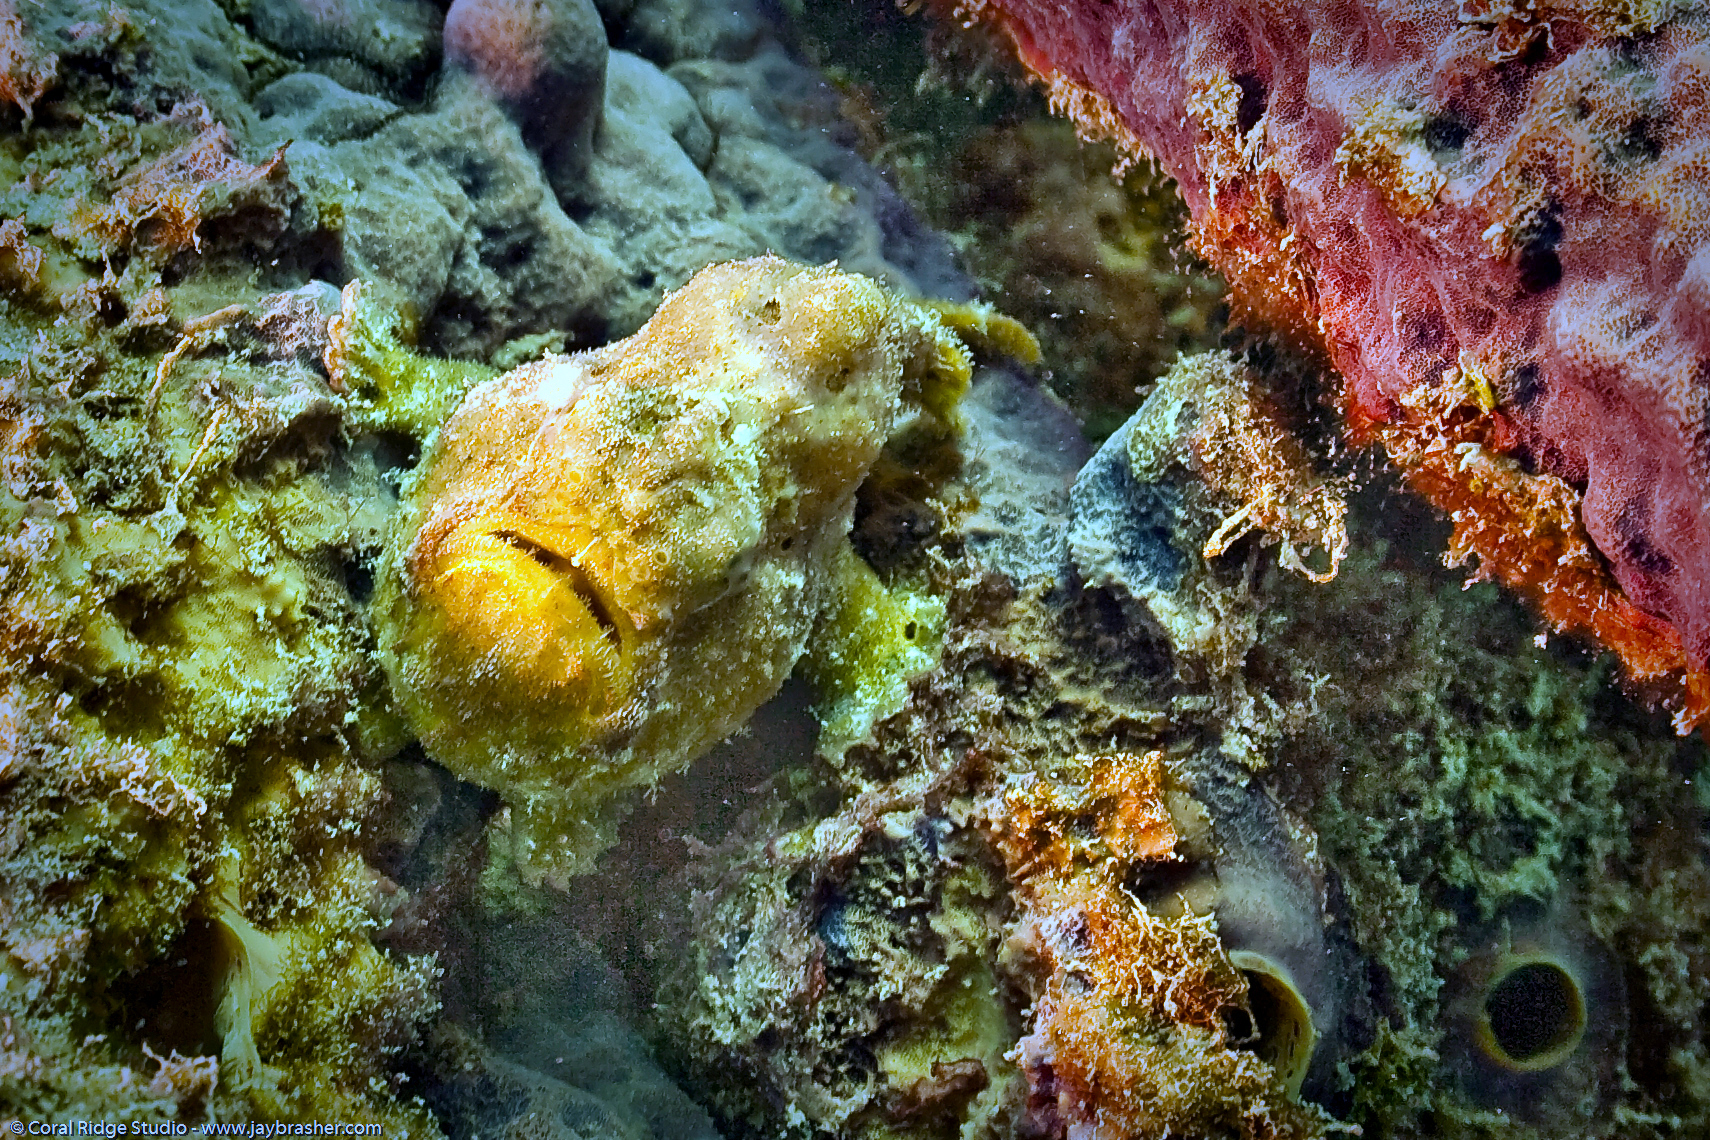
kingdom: Animalia
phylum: Chordata
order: Lophiiformes
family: Antennariidae
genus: Antennarius
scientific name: Antennarius multiocellatus
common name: Longlure frogfish
